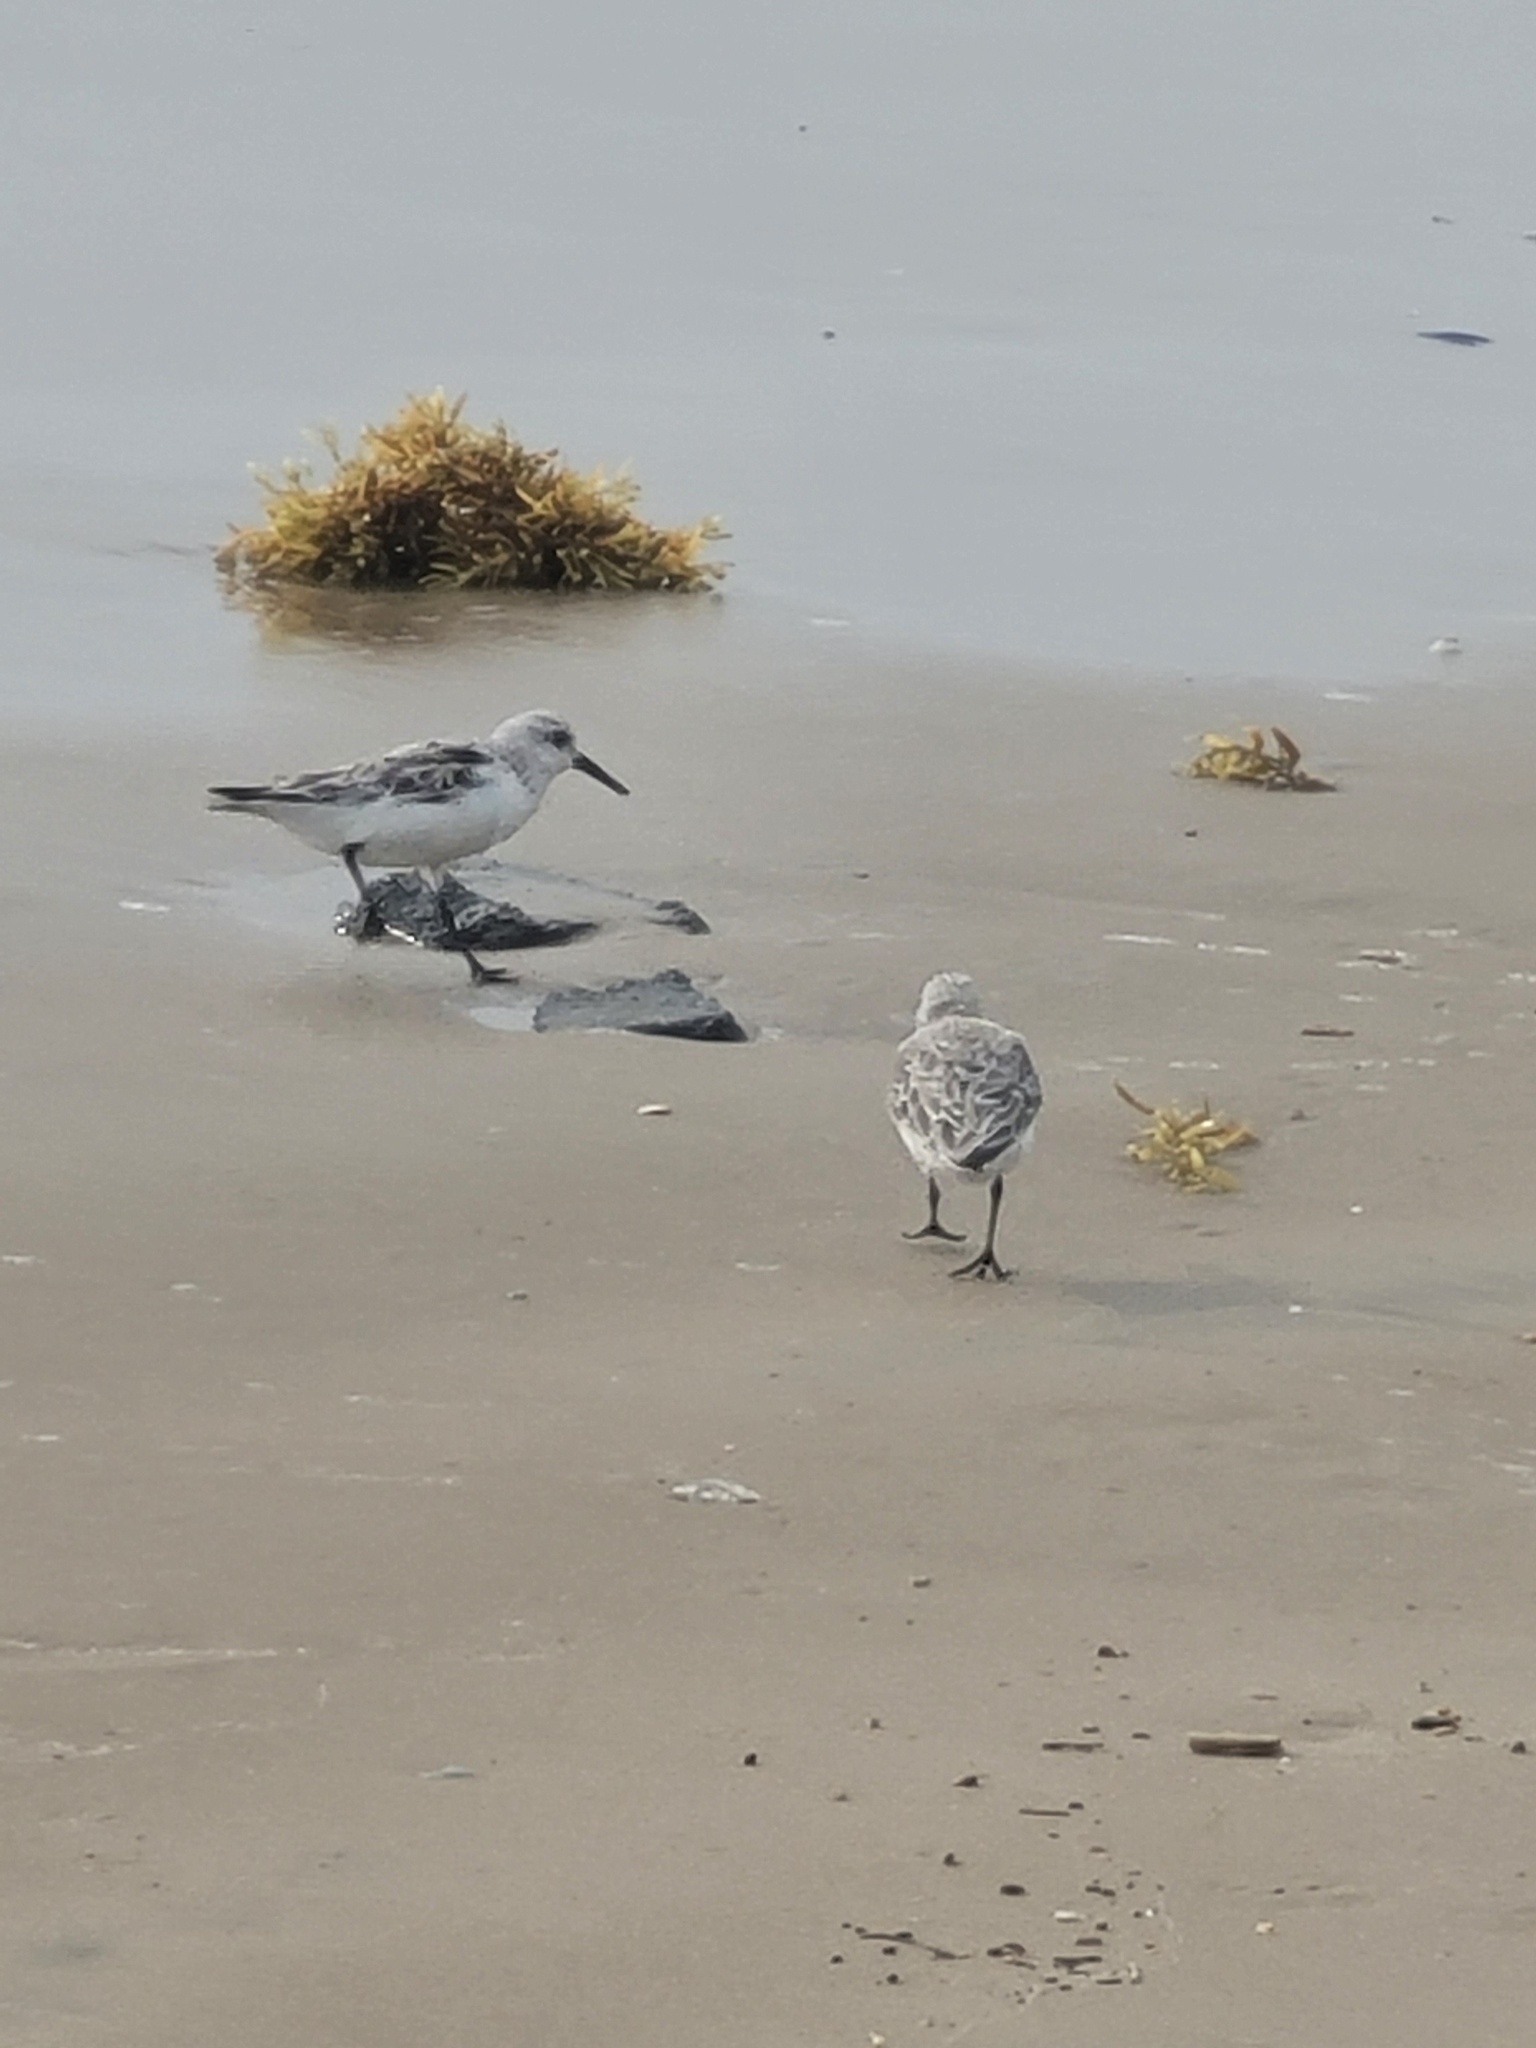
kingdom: Animalia
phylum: Chordata
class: Aves
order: Charadriiformes
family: Scolopacidae
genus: Calidris
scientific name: Calidris alba
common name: Sanderling
